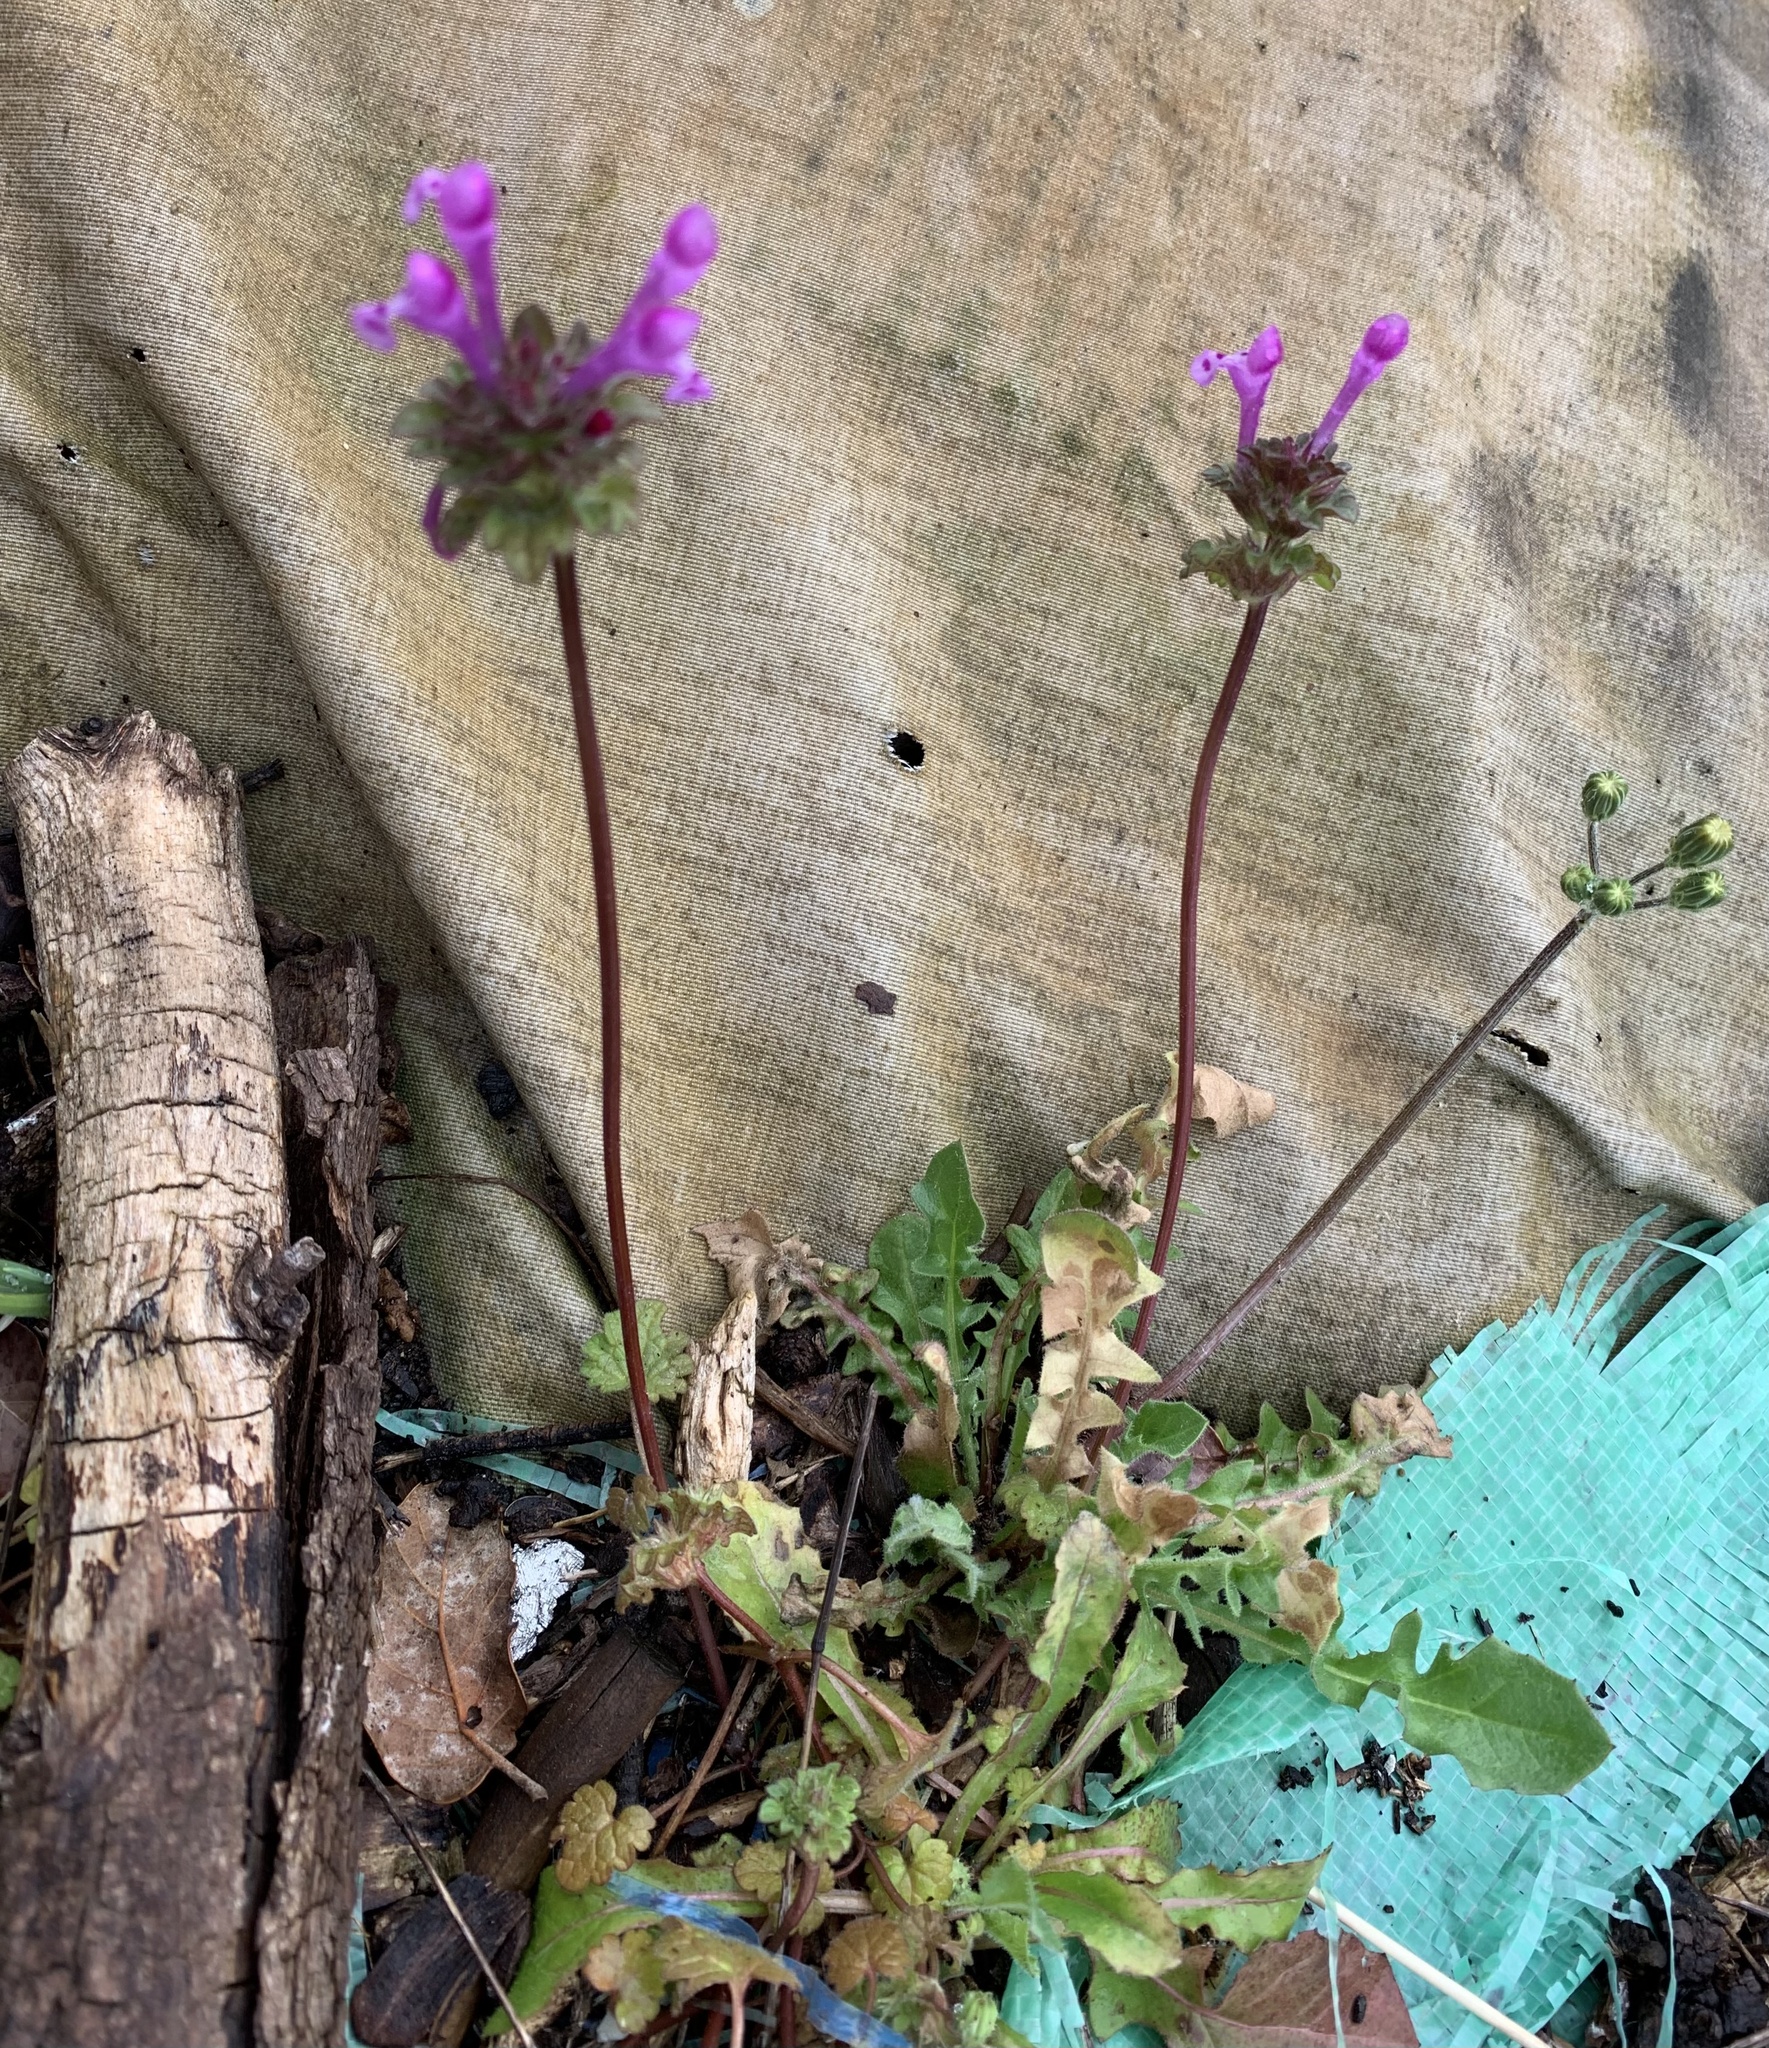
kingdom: Plantae
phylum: Tracheophyta
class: Magnoliopsida
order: Lamiales
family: Lamiaceae
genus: Lamium
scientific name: Lamium amplexicaule
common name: Henbit dead-nettle
